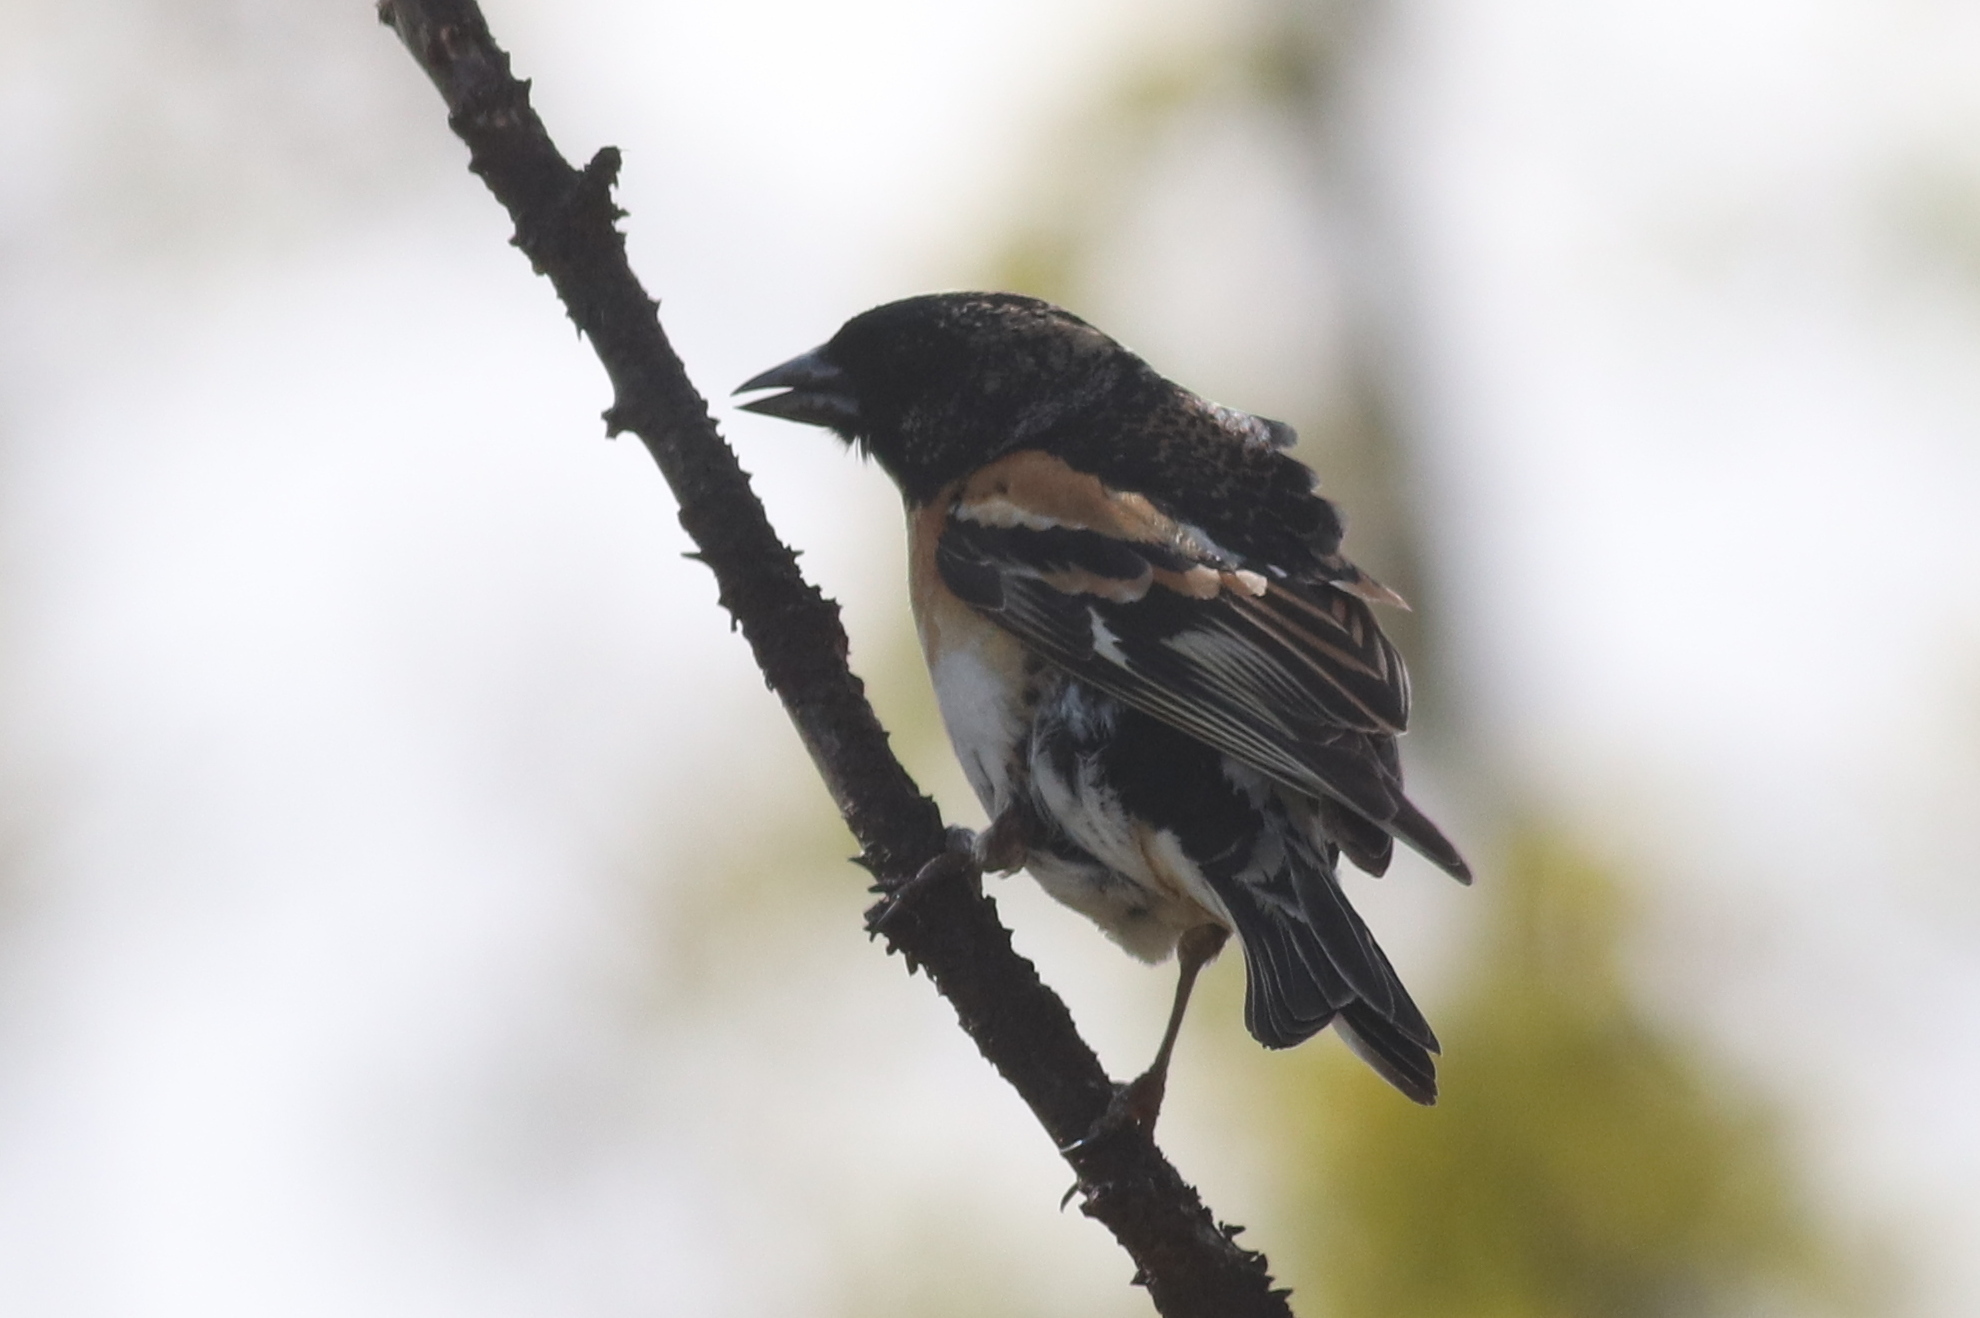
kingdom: Animalia
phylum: Chordata
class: Aves
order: Passeriformes
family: Fringillidae
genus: Fringilla
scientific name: Fringilla montifringilla
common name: Brambling
